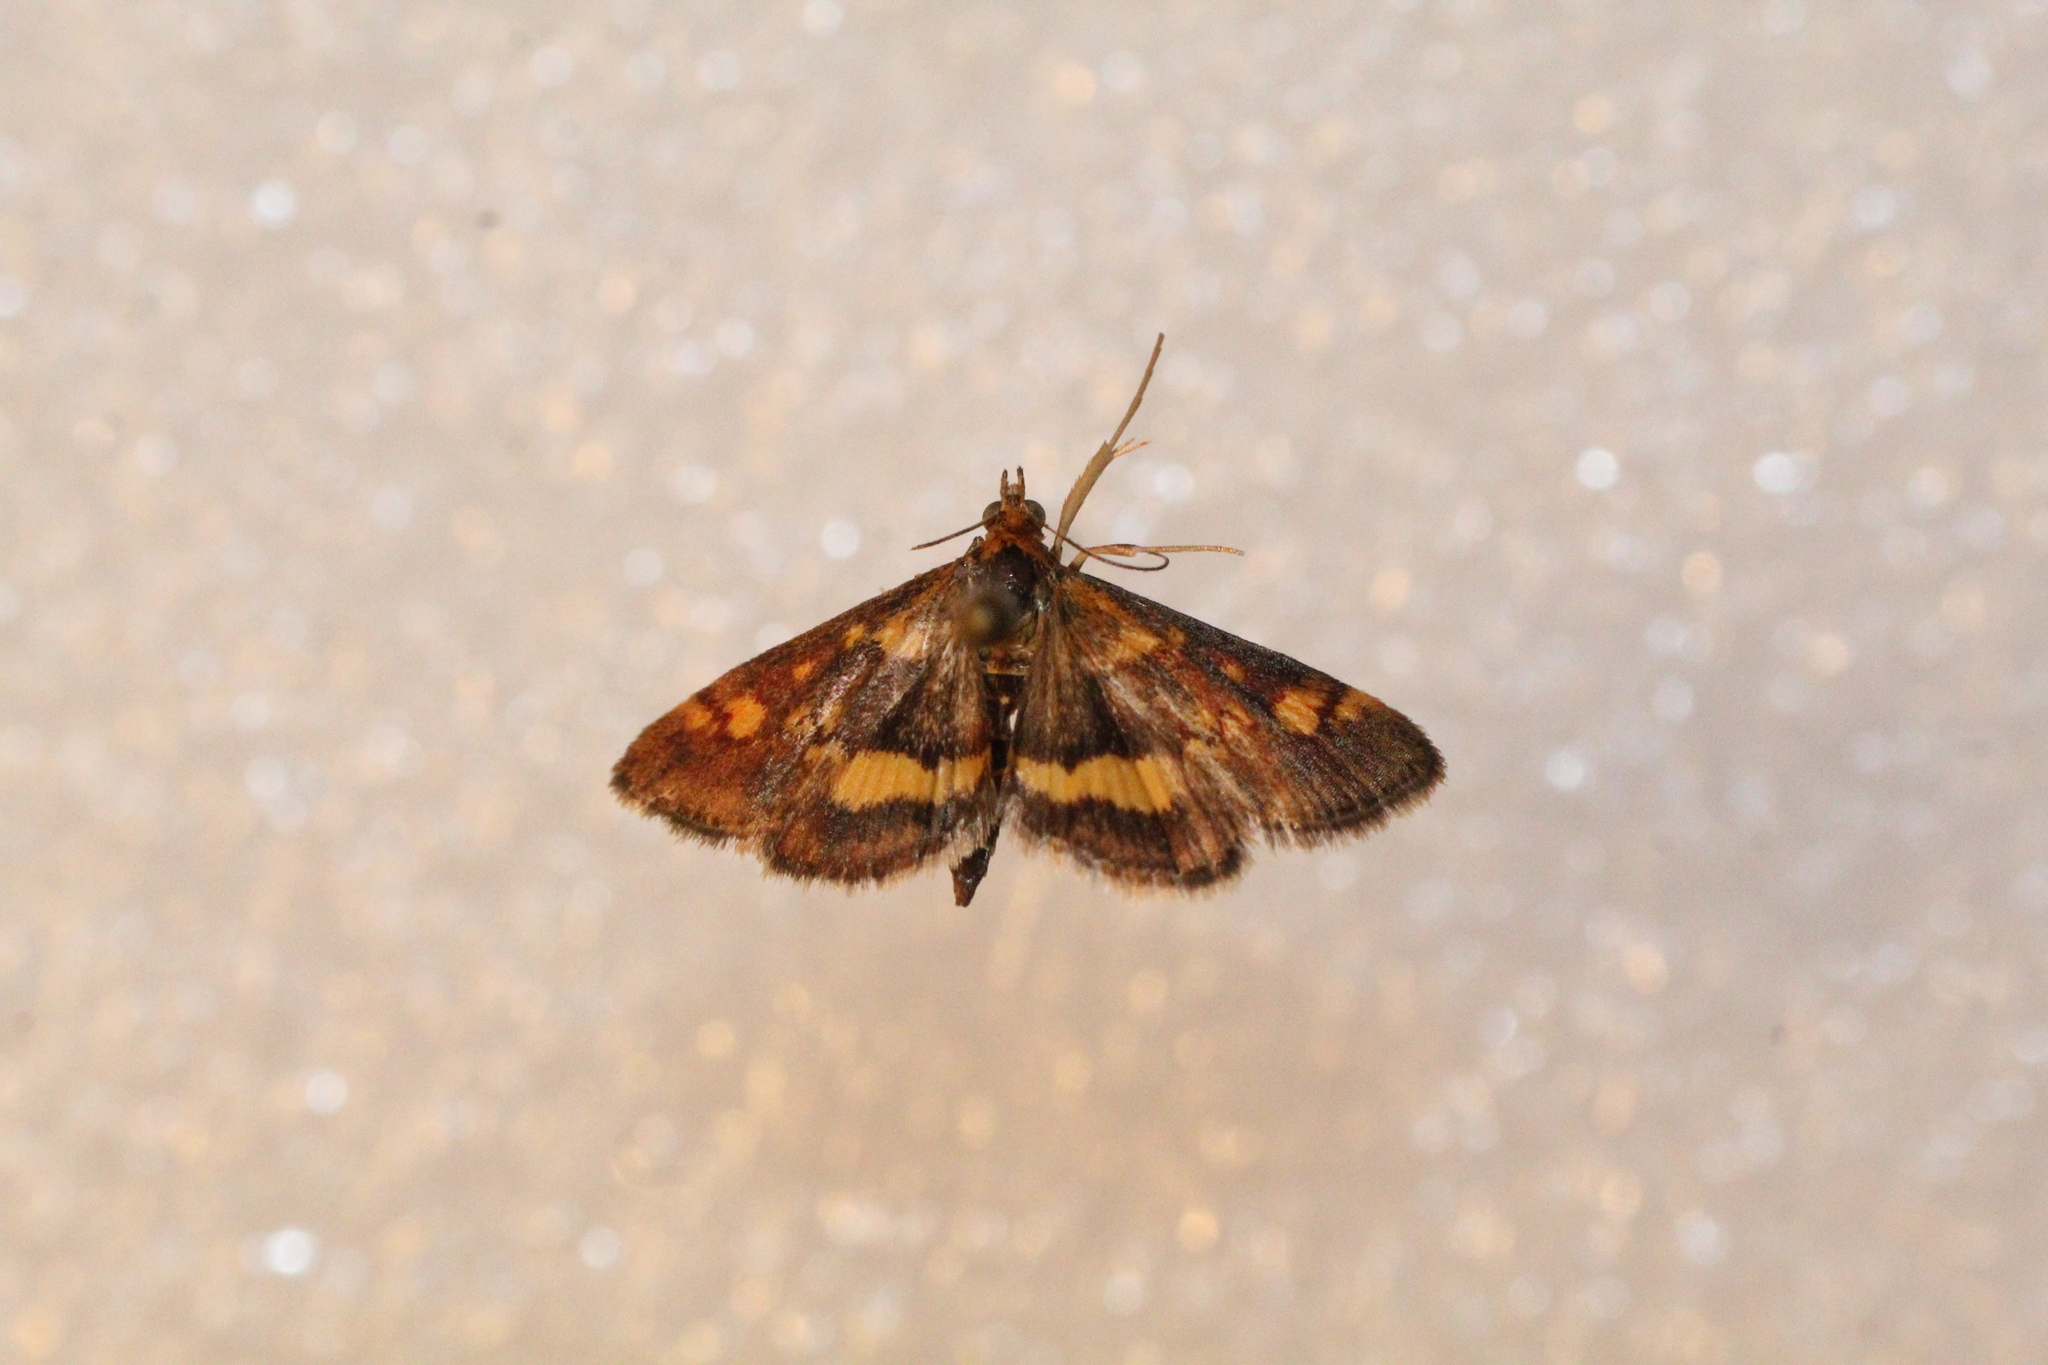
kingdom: Animalia
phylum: Arthropoda
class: Insecta
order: Lepidoptera
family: Crambidae
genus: Pyrausta
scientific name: Pyrausta aurata
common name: Small purple & gold
